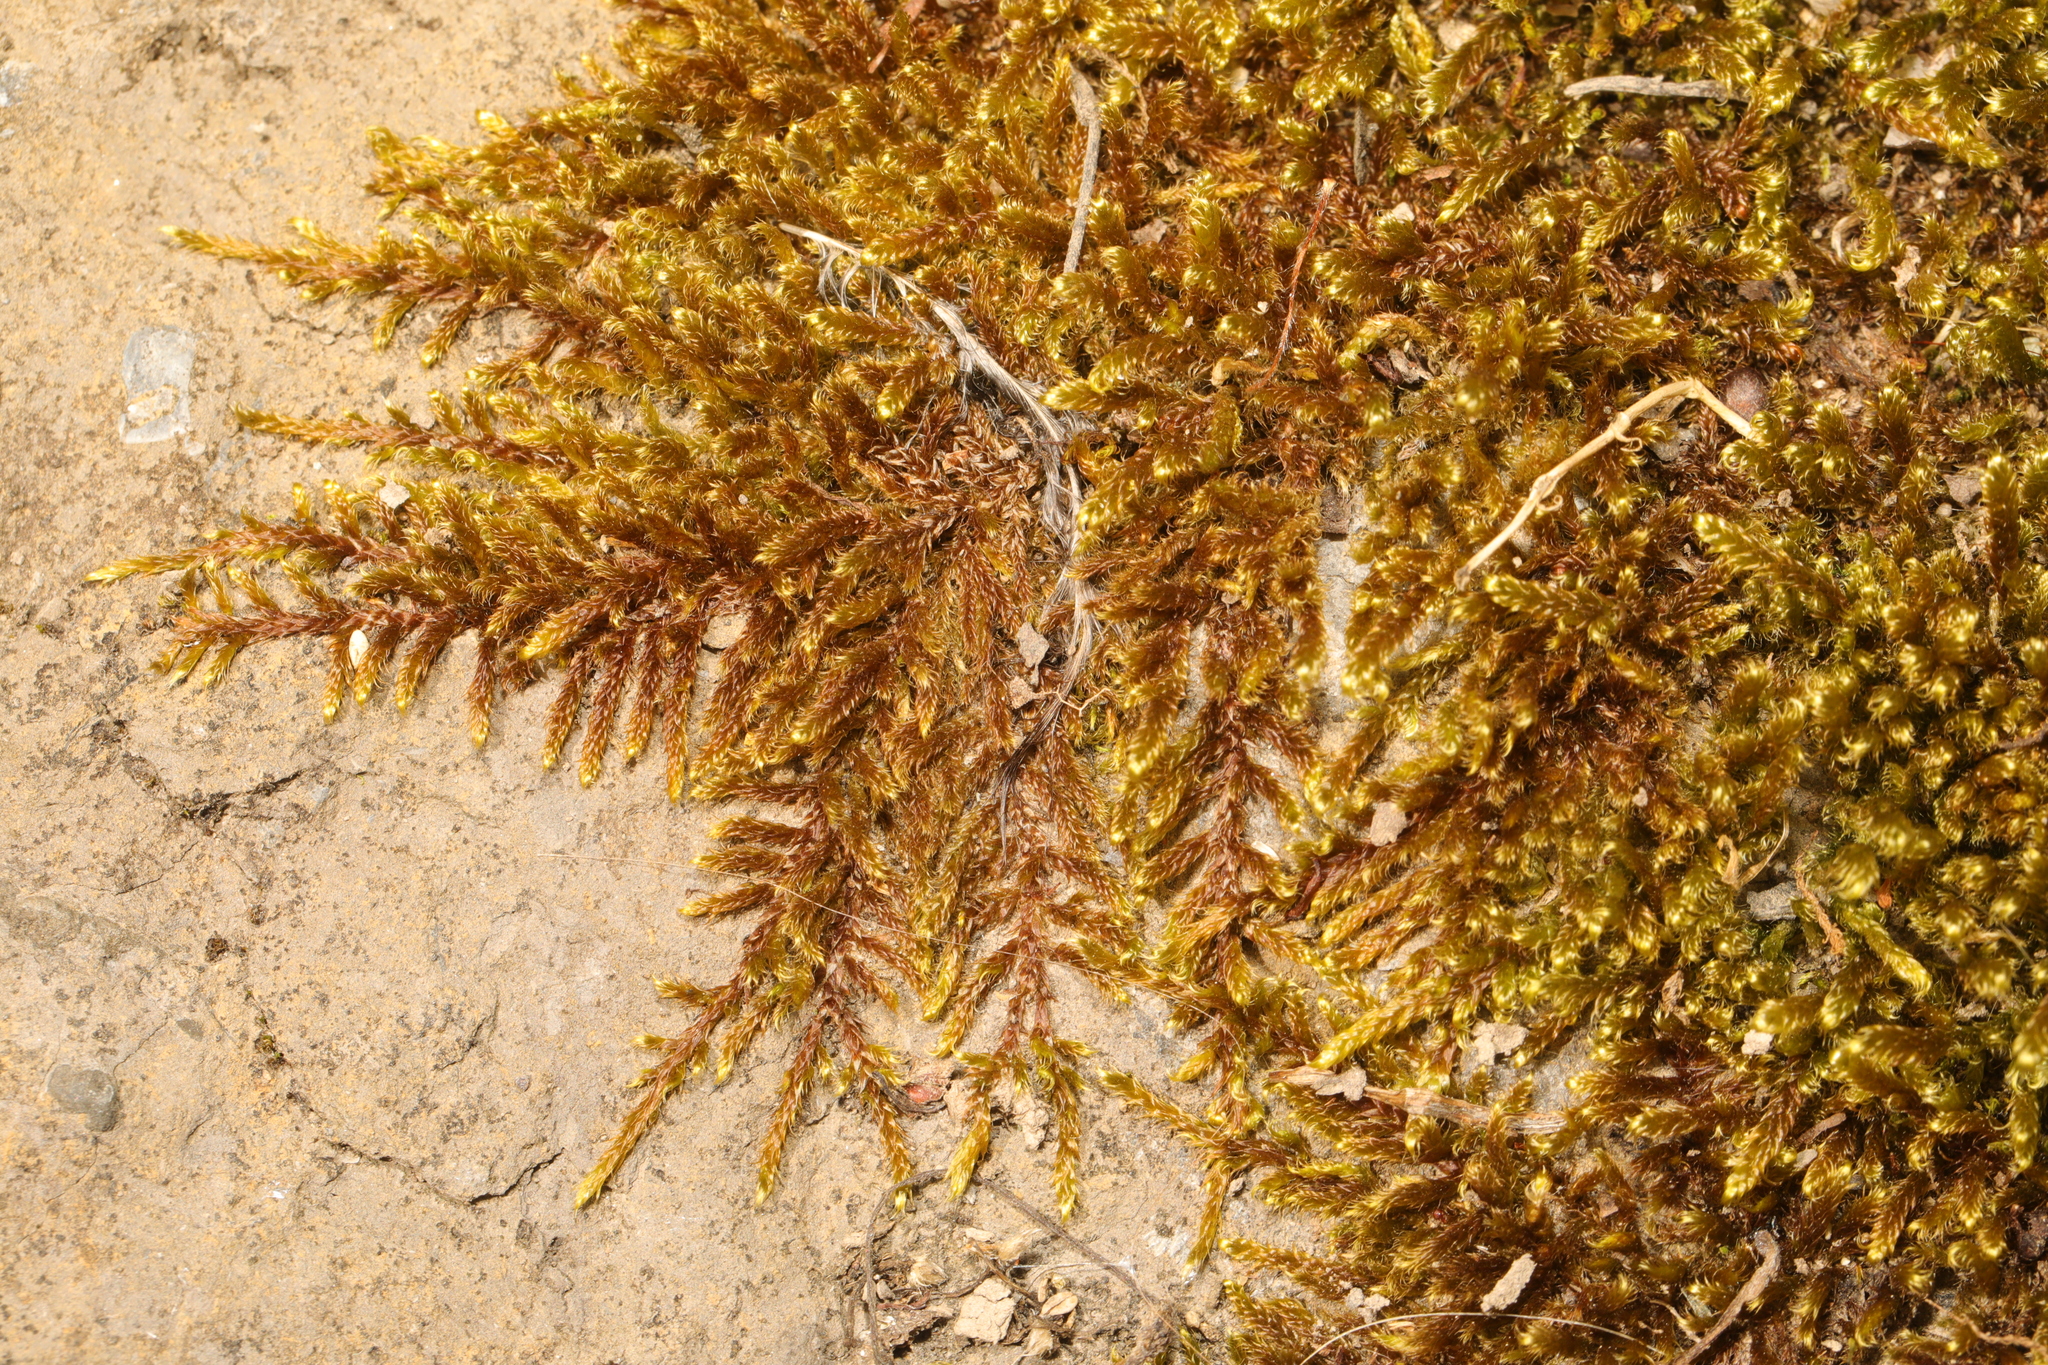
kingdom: Plantae
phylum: Bryophyta
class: Bryopsida
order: Hypnales
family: Hypnaceae
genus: Hypnum
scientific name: Hypnum cupressiforme
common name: Cypress-leaved plait-moss
